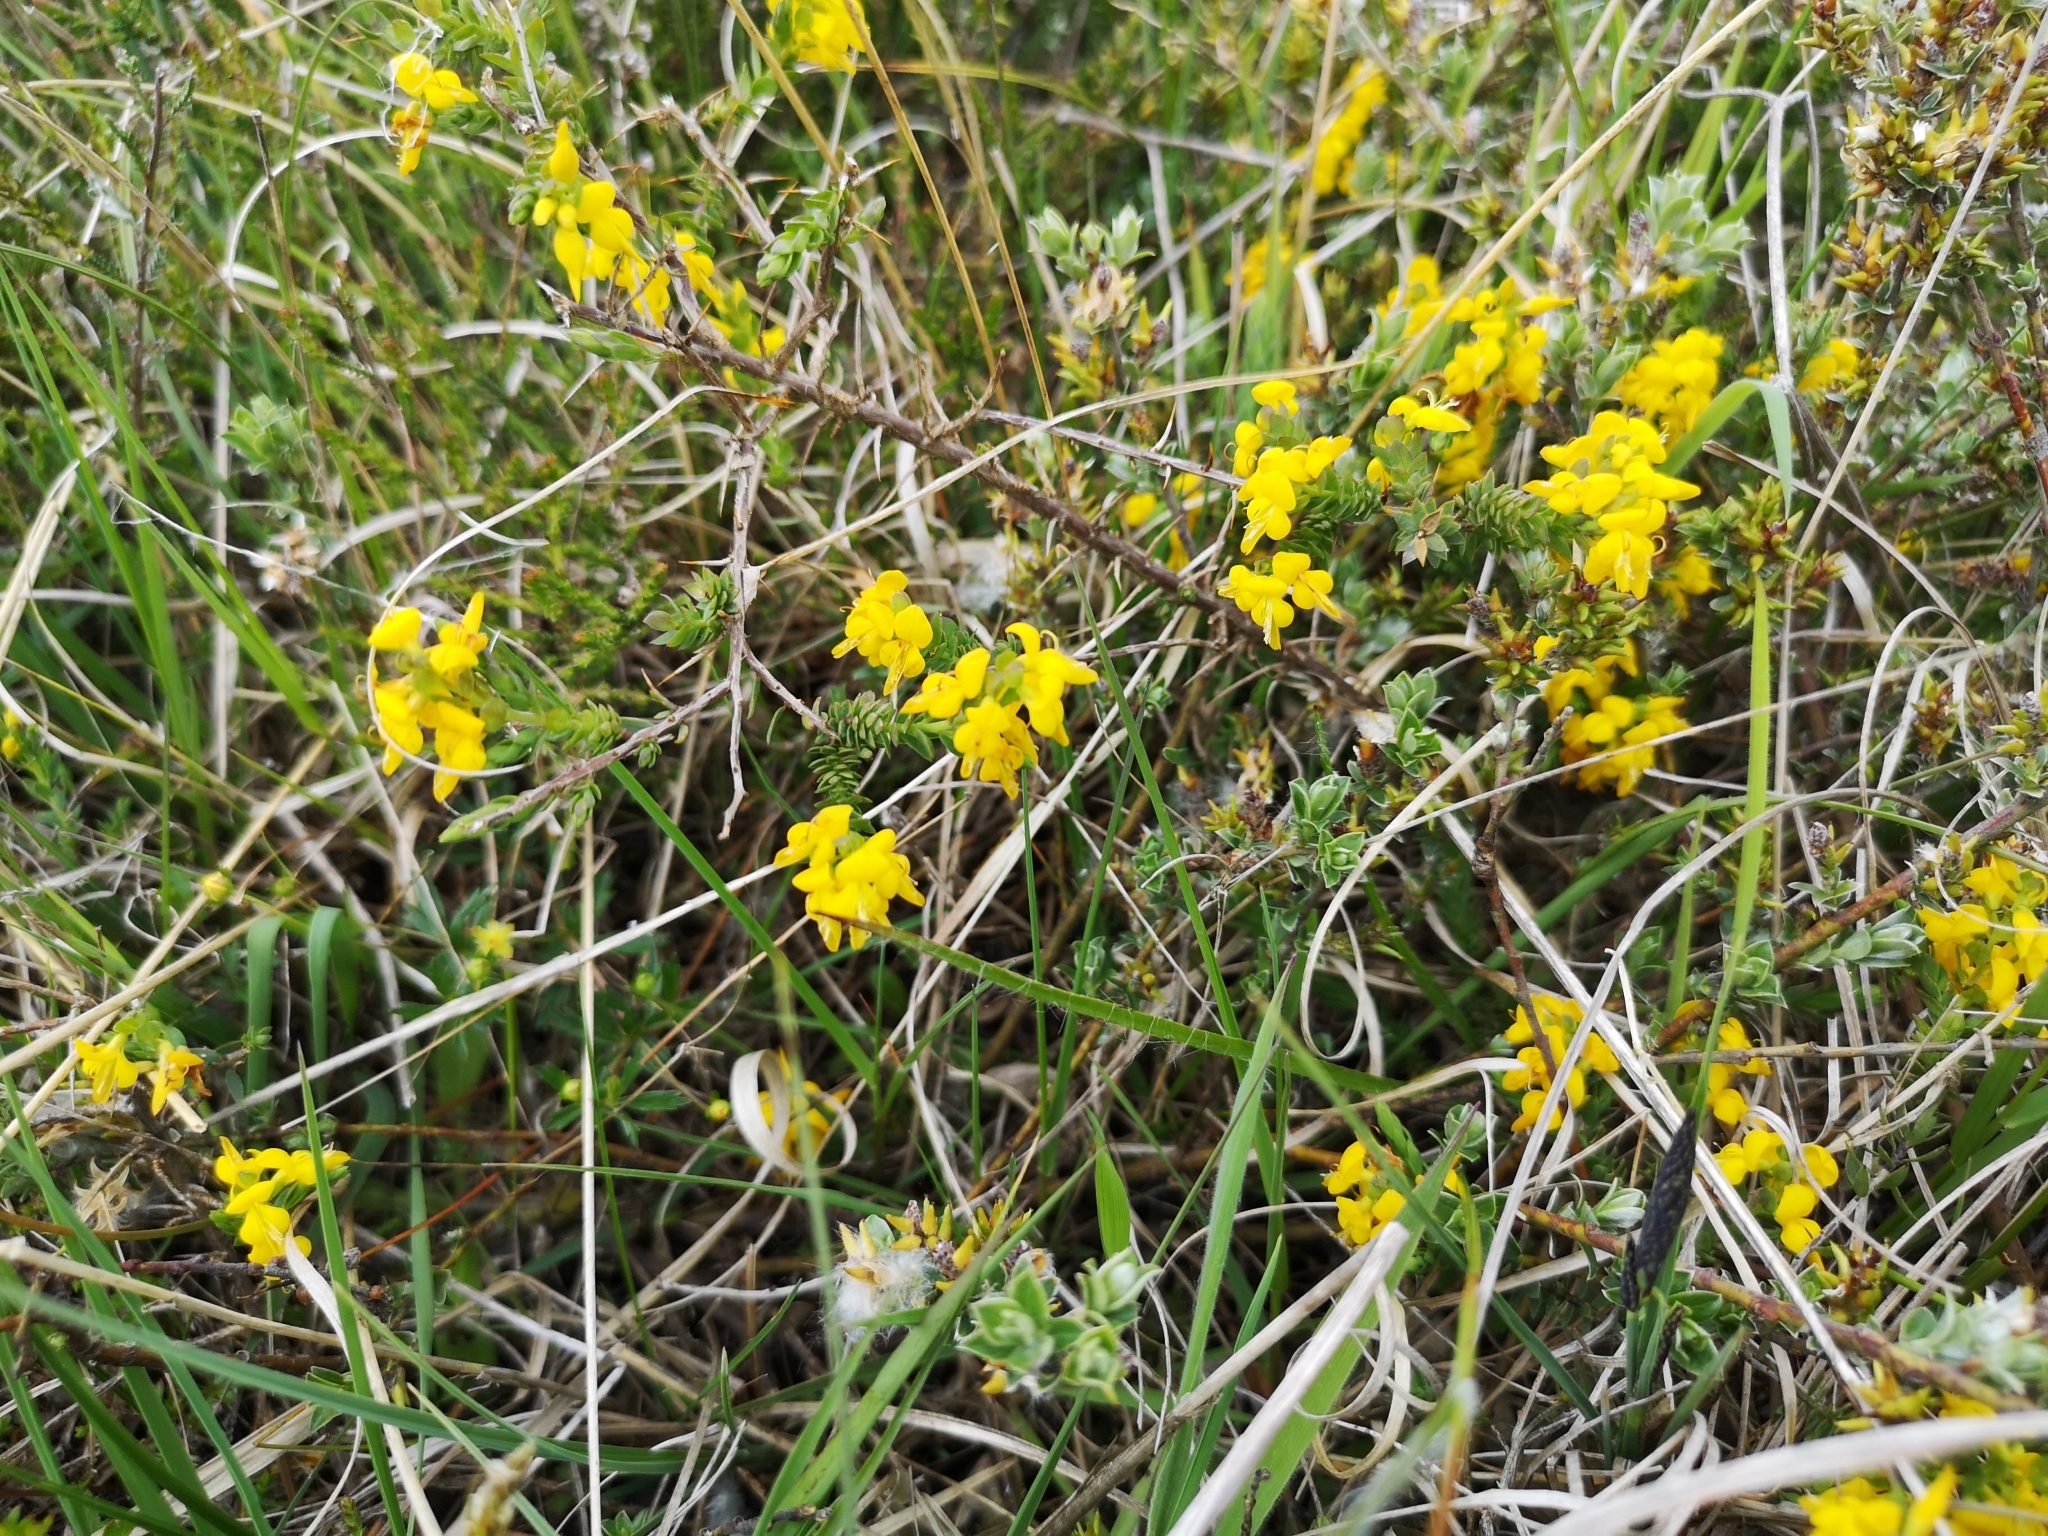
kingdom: Plantae
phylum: Tracheophyta
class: Magnoliopsida
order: Fabales
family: Fabaceae
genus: Genista
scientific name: Genista anglica
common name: Petty whin
